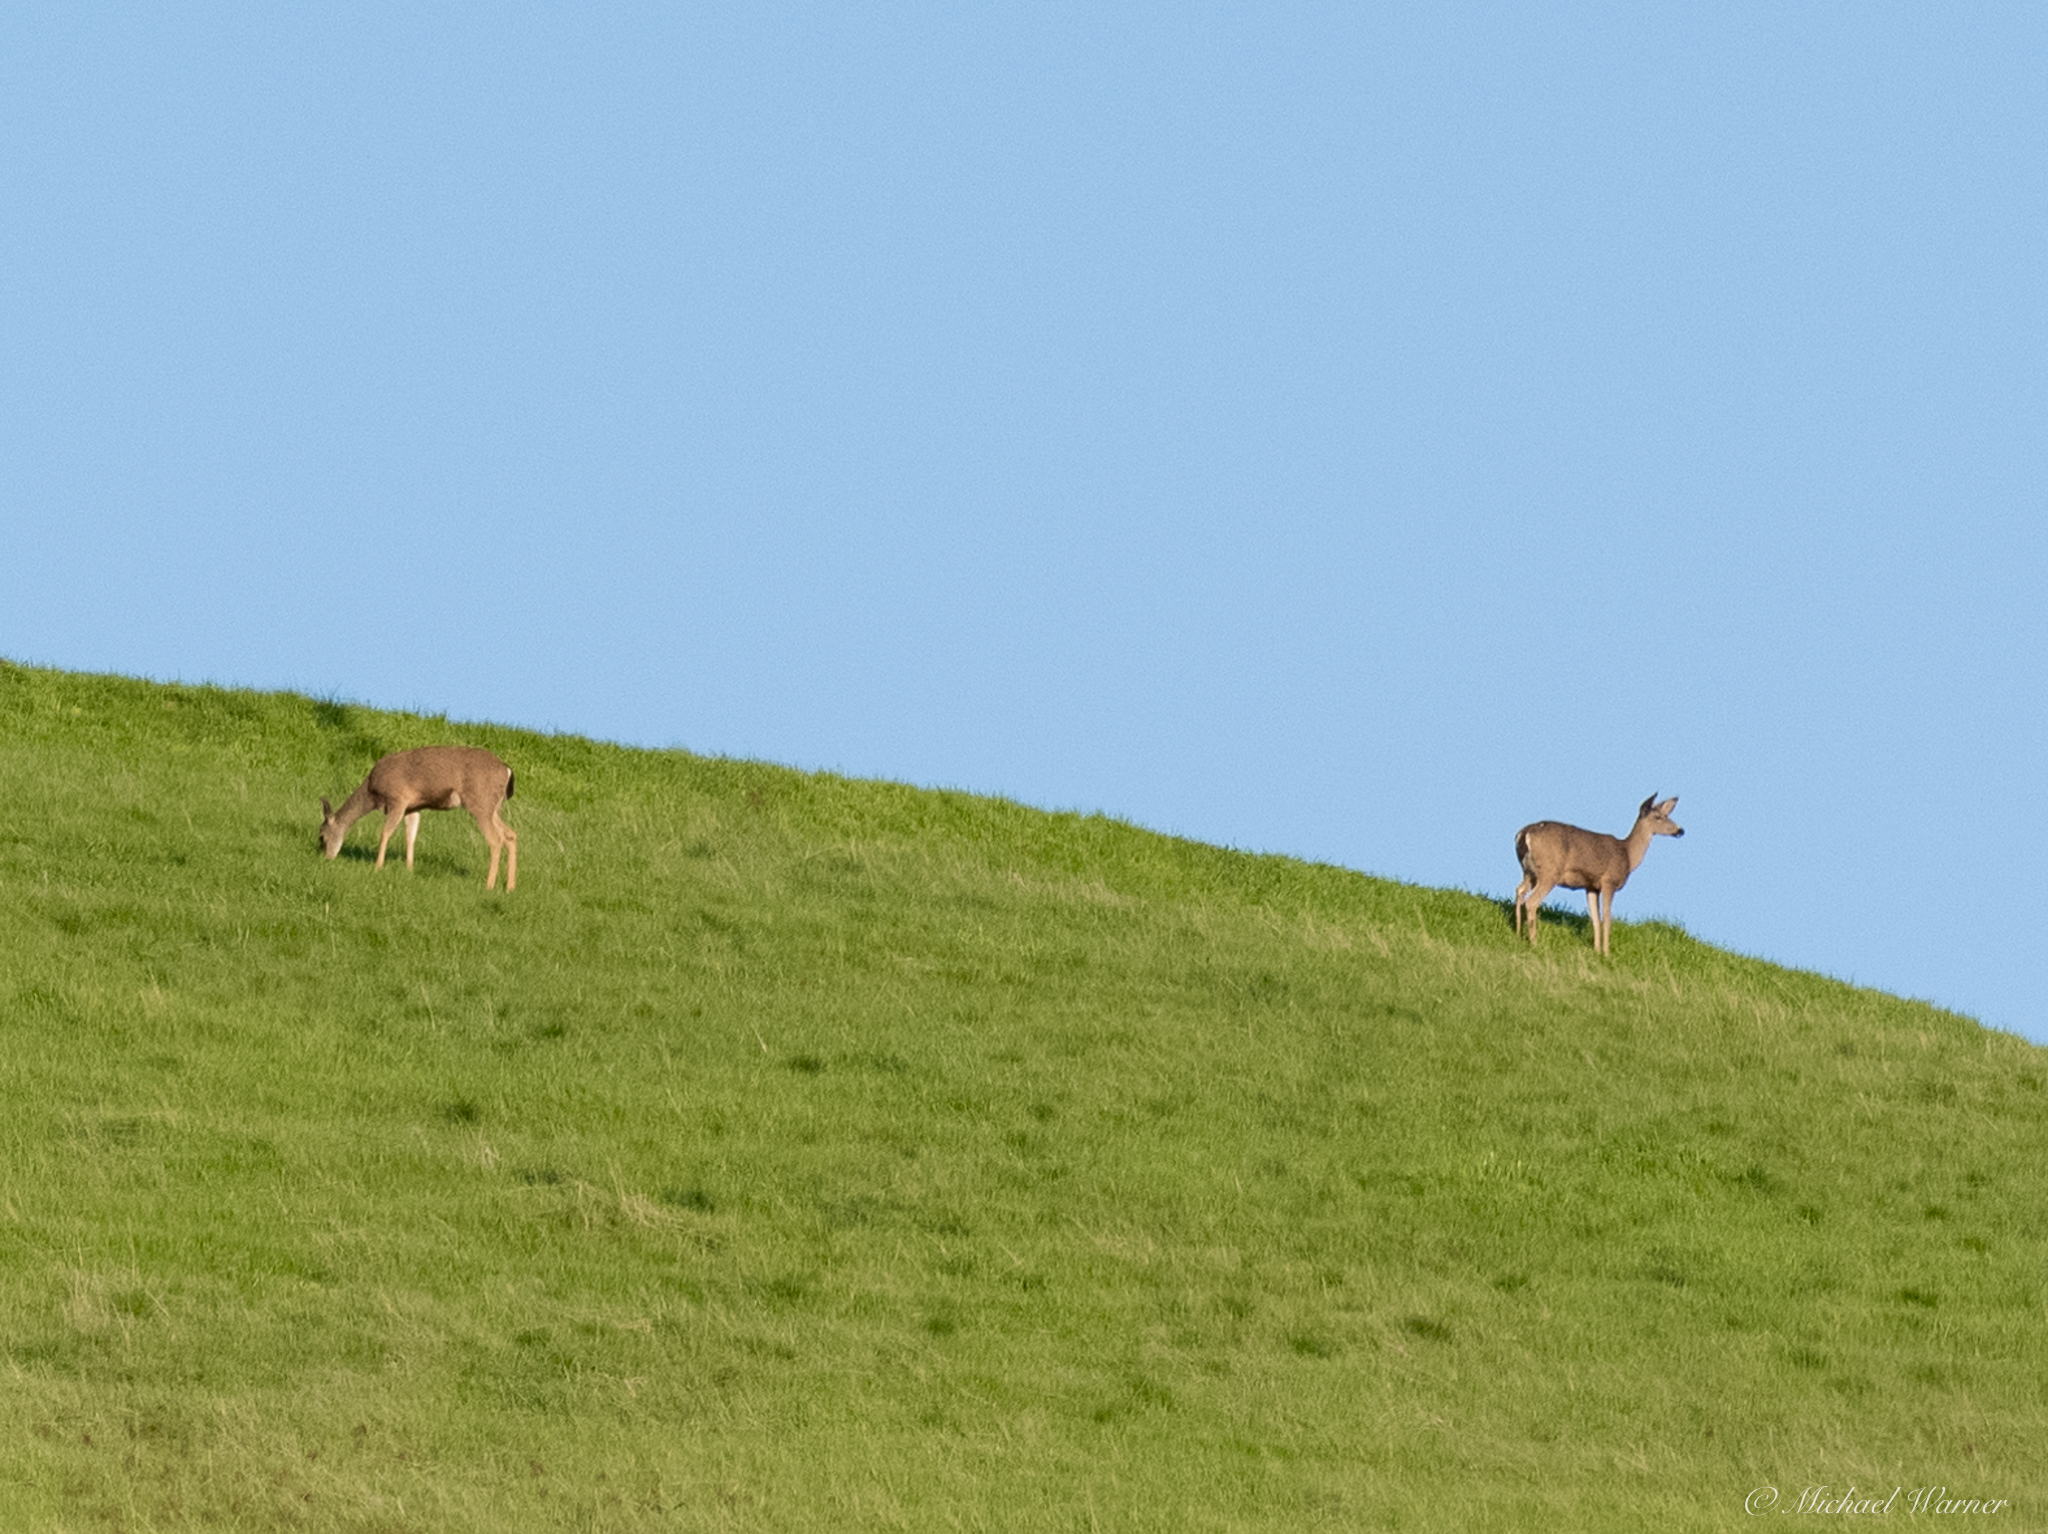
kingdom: Animalia
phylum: Chordata
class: Mammalia
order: Artiodactyla
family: Cervidae
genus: Odocoileus
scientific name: Odocoileus hemionus
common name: Mule deer
